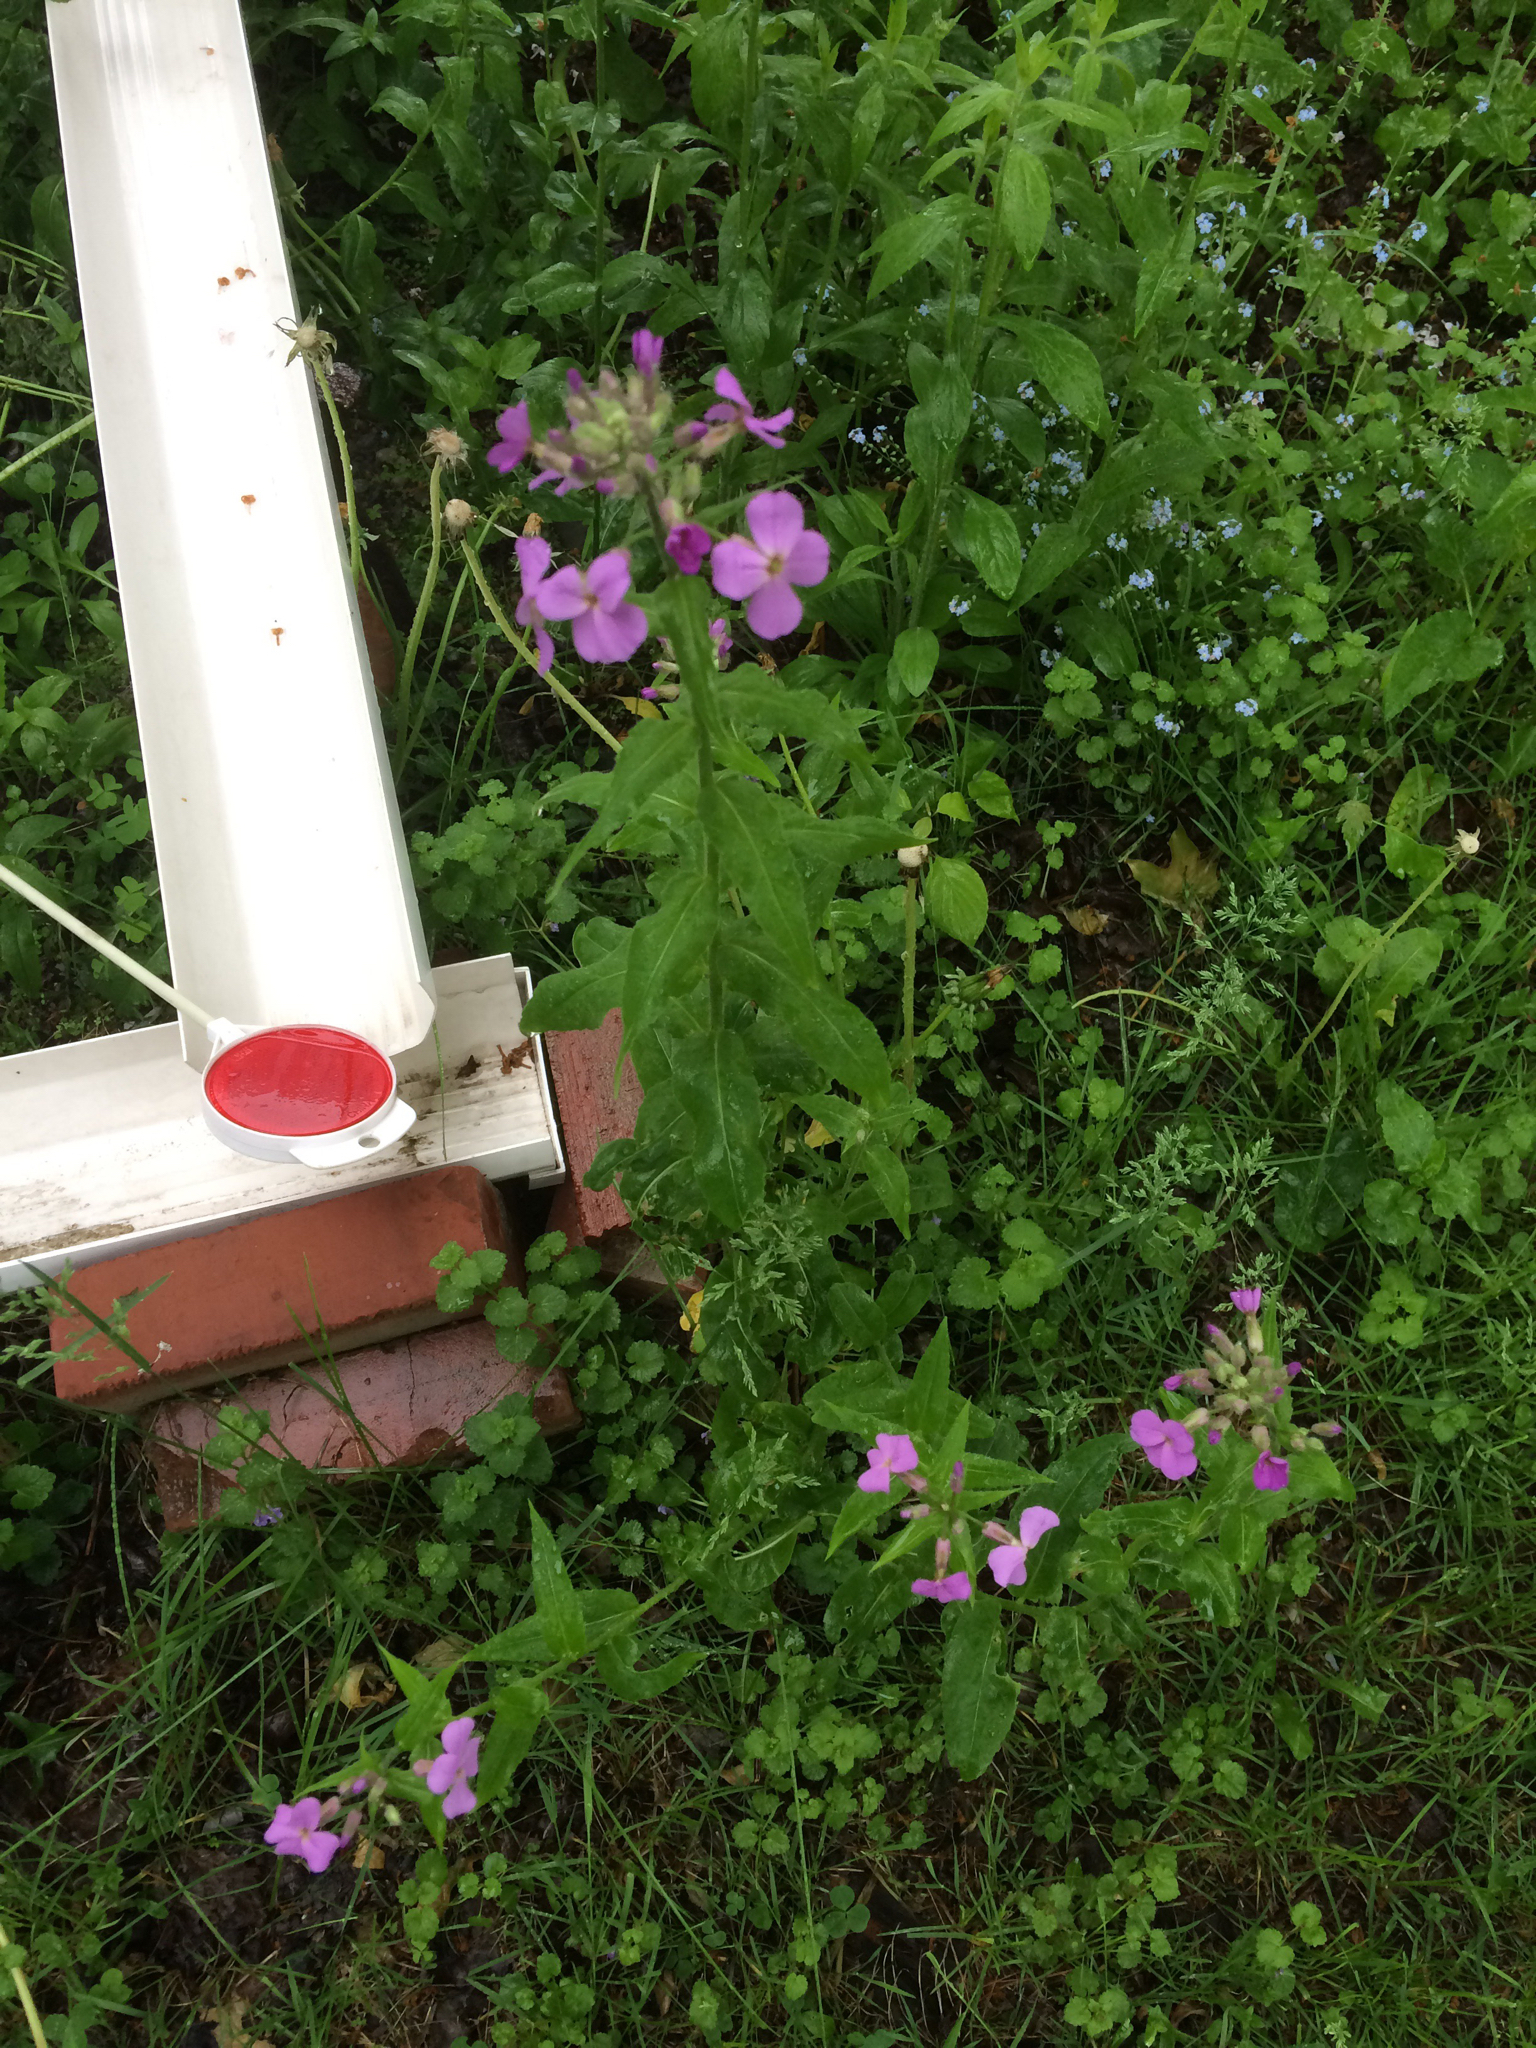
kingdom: Plantae
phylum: Tracheophyta
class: Magnoliopsida
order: Brassicales
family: Brassicaceae
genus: Hesperis
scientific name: Hesperis matronalis
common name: Dame's-violet
